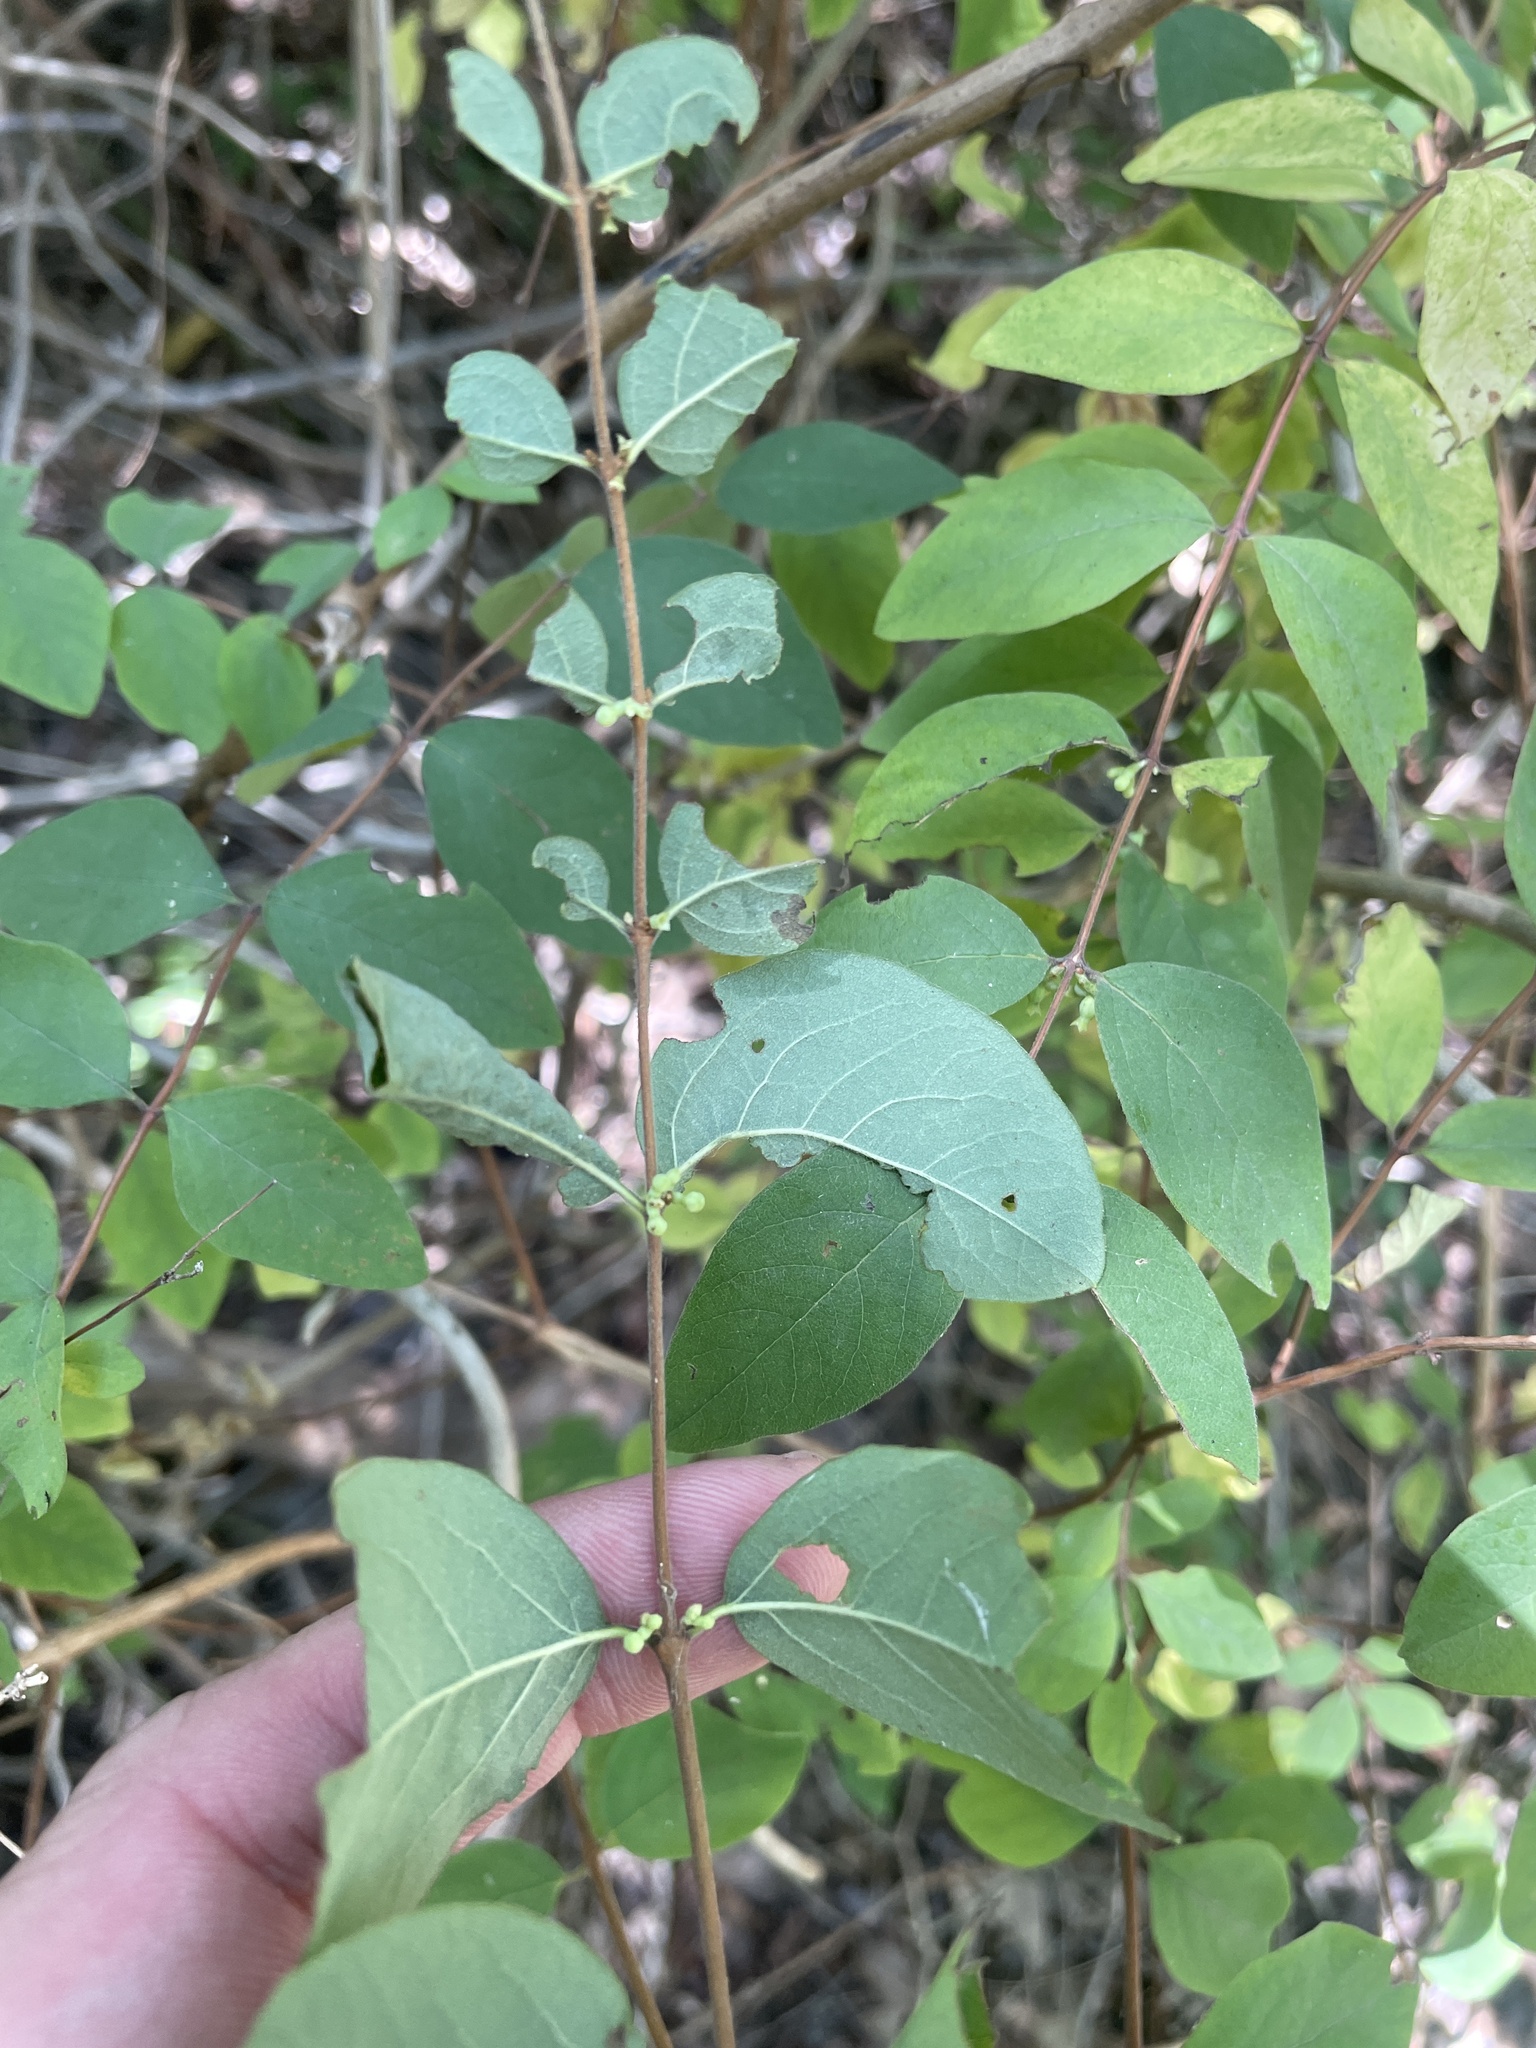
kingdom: Plantae
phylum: Tracheophyta
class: Magnoliopsida
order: Dipsacales
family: Caprifoliaceae
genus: Symphoricarpos
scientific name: Symphoricarpos orbiculatus
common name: Coralberry
